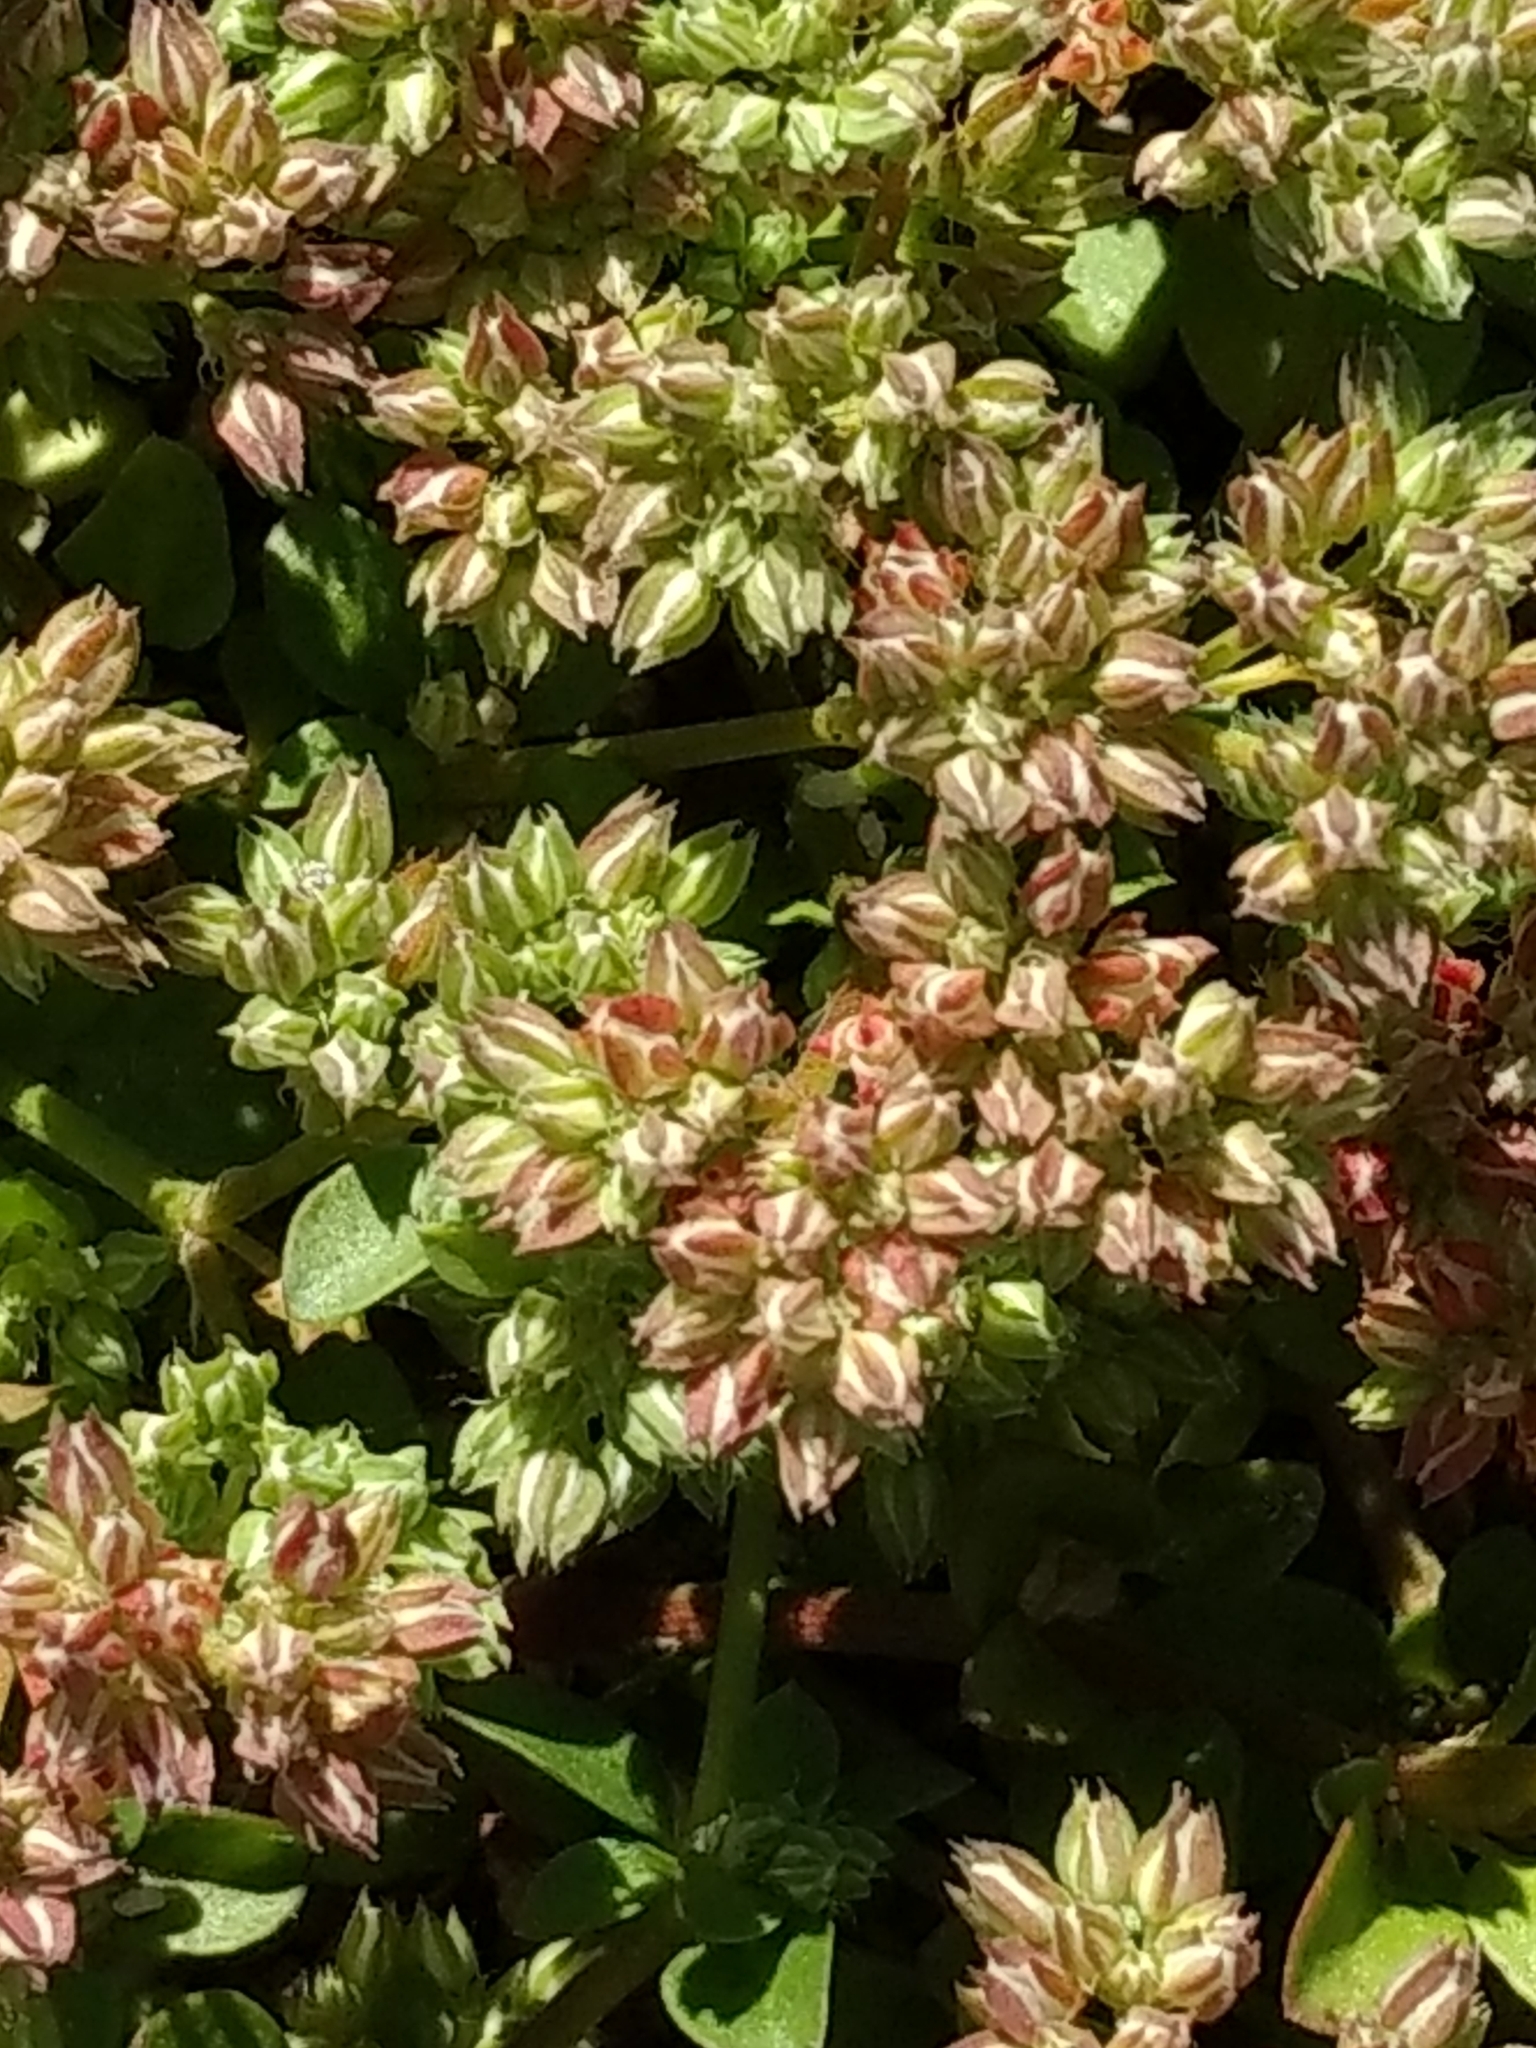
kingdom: Plantae
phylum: Tracheophyta
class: Magnoliopsida
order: Caryophyllales
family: Caryophyllaceae
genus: Polycarpon
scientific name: Polycarpon tetraphyllum
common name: Four-leaved all-seed
